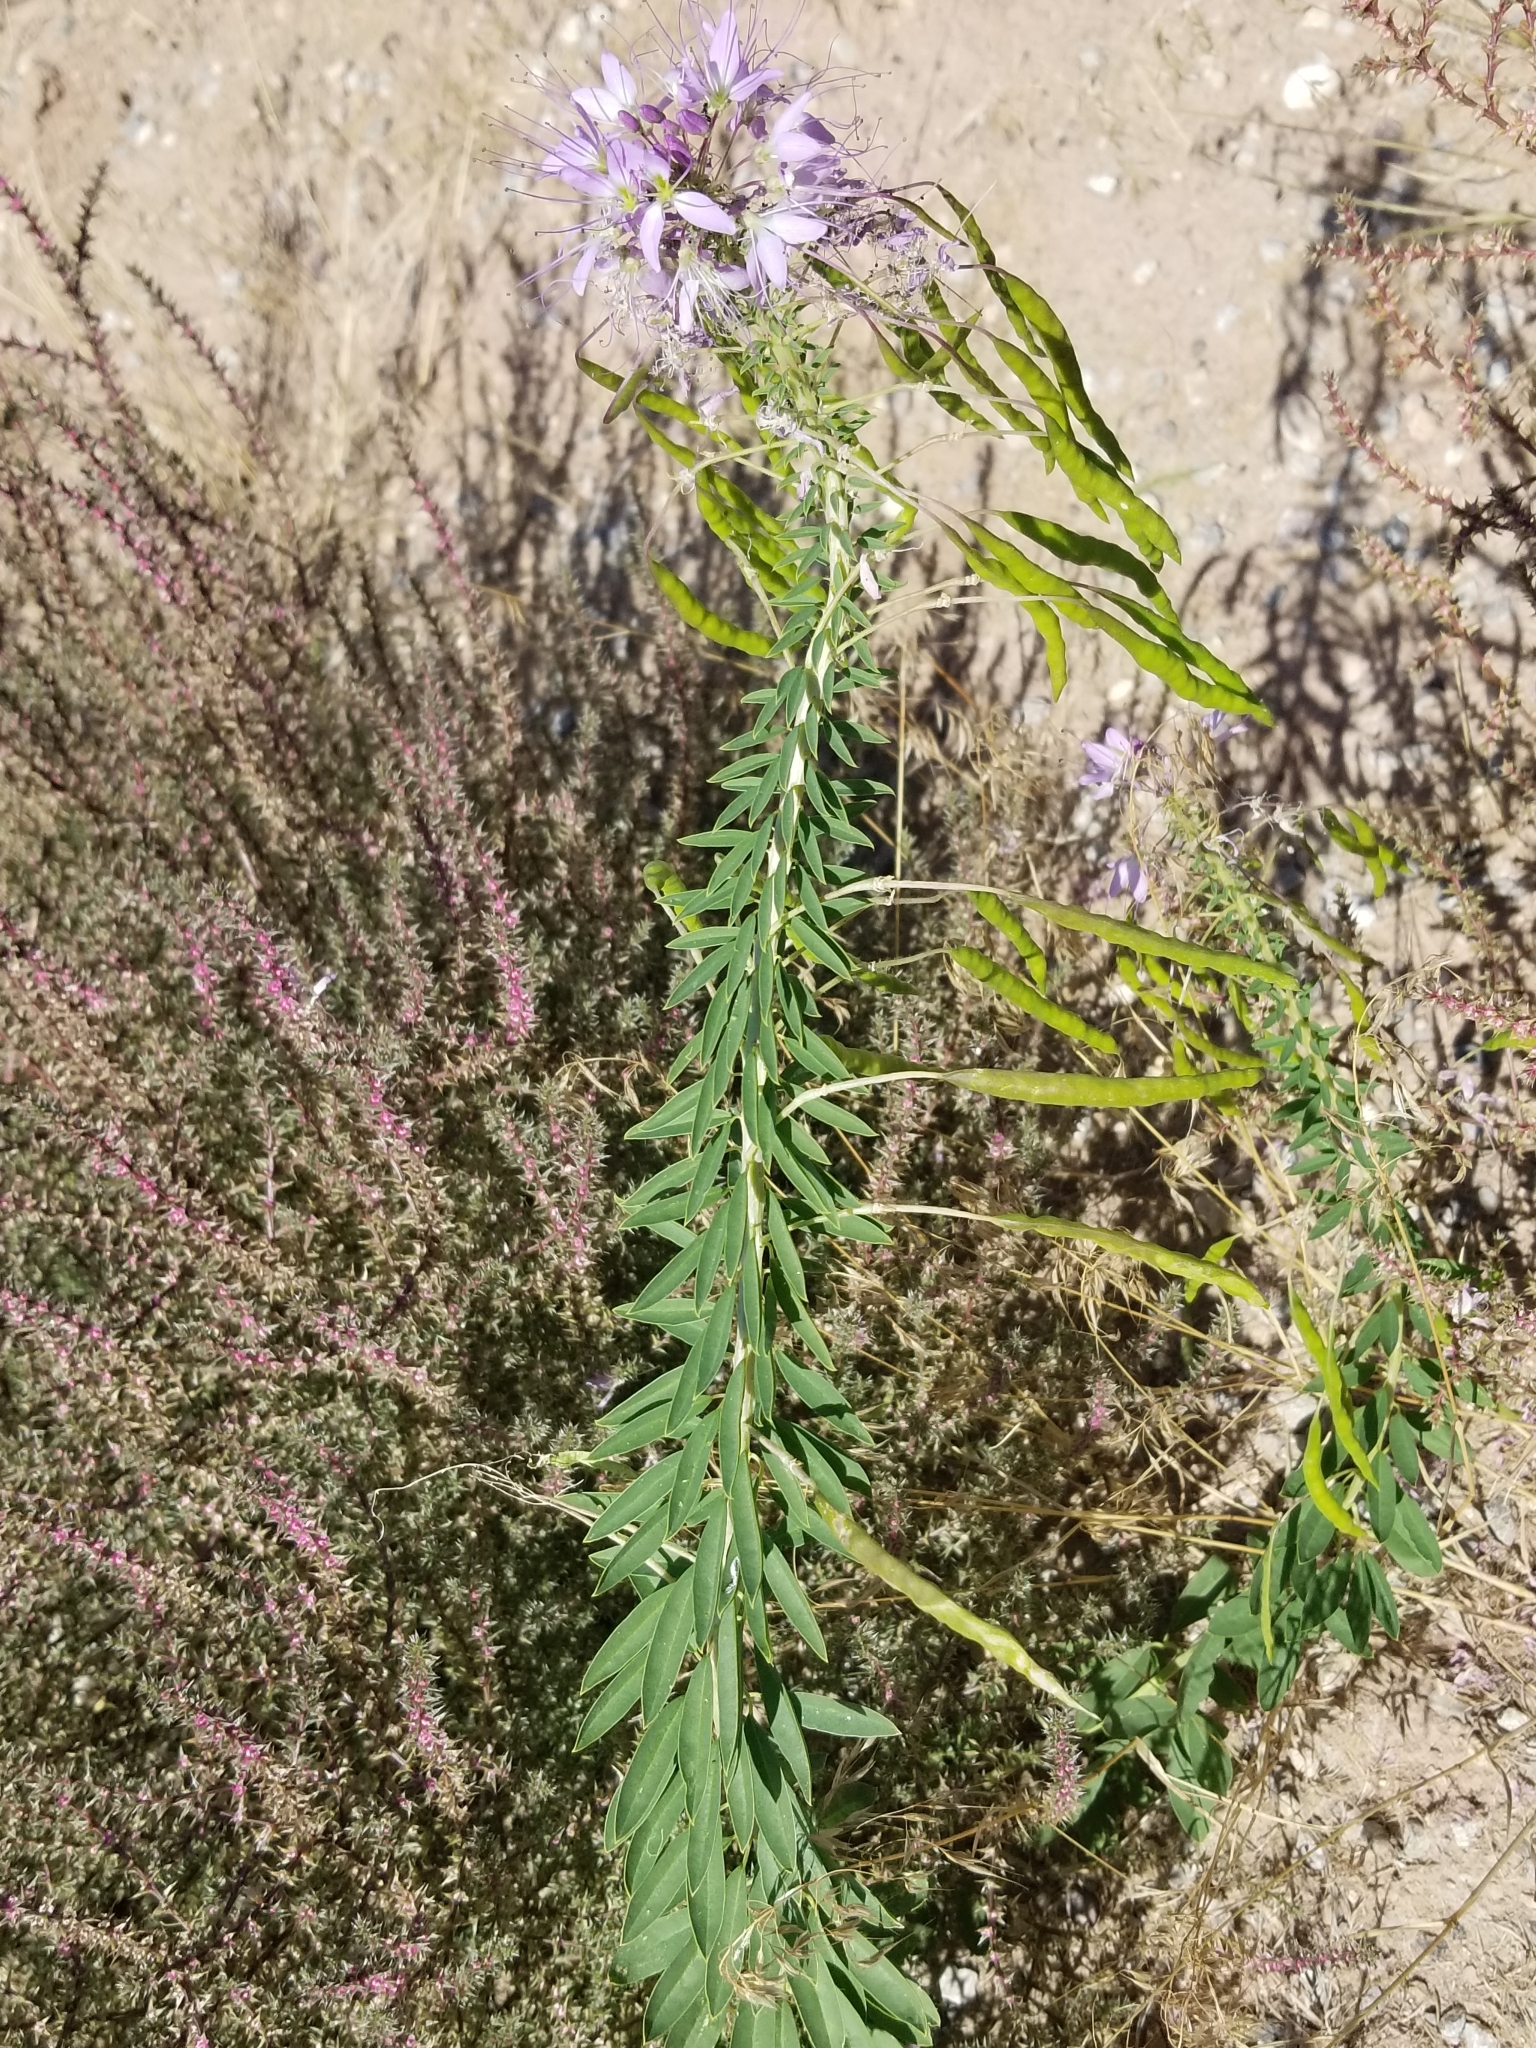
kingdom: Plantae
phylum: Tracheophyta
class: Magnoliopsida
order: Brassicales
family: Cleomaceae
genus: Cleomella
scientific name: Cleomella serrulata
